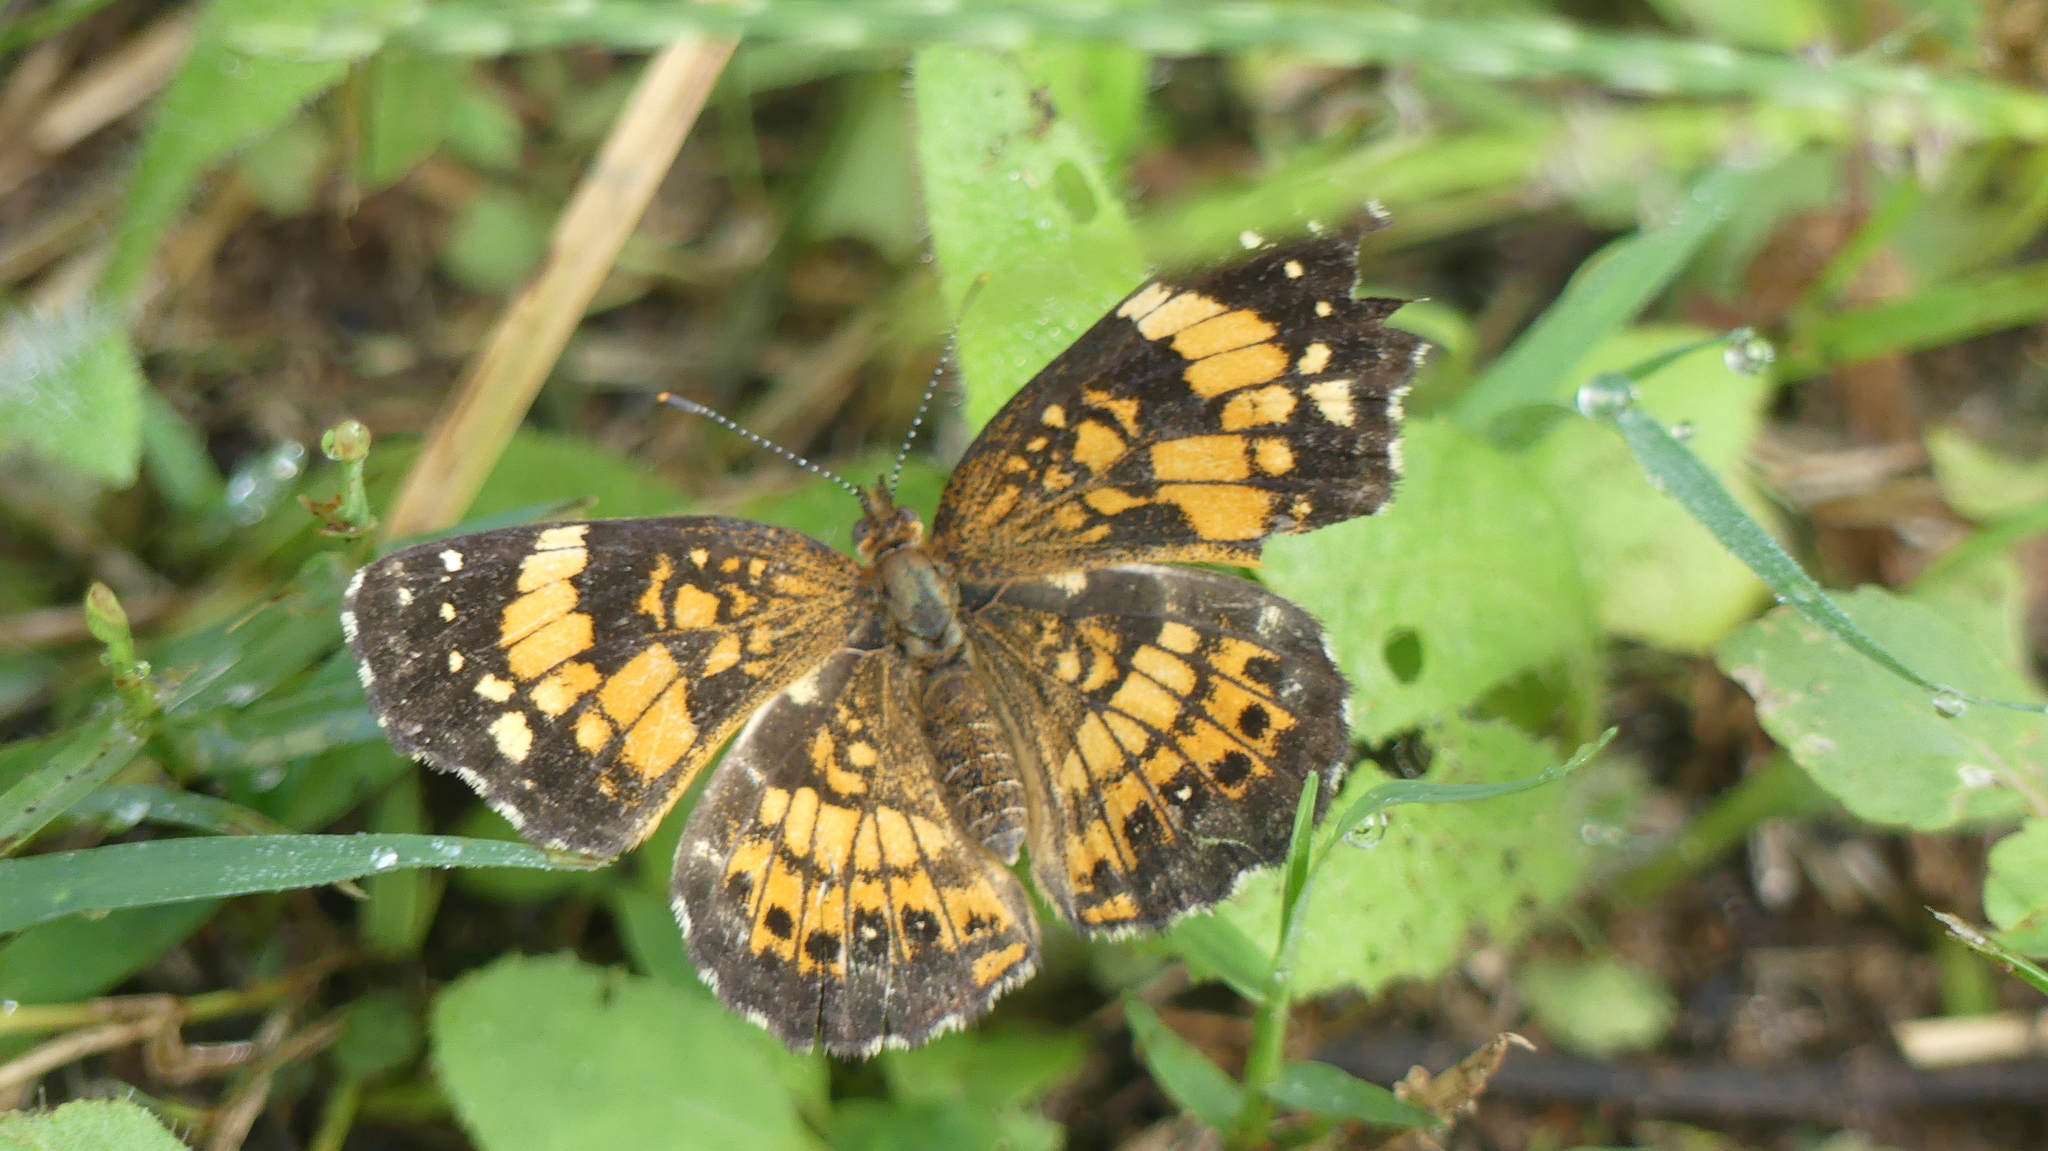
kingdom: Animalia
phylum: Arthropoda
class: Insecta
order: Lepidoptera
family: Nymphalidae
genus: Chlosyne
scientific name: Chlosyne nycteis
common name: Silvery checkerspot
